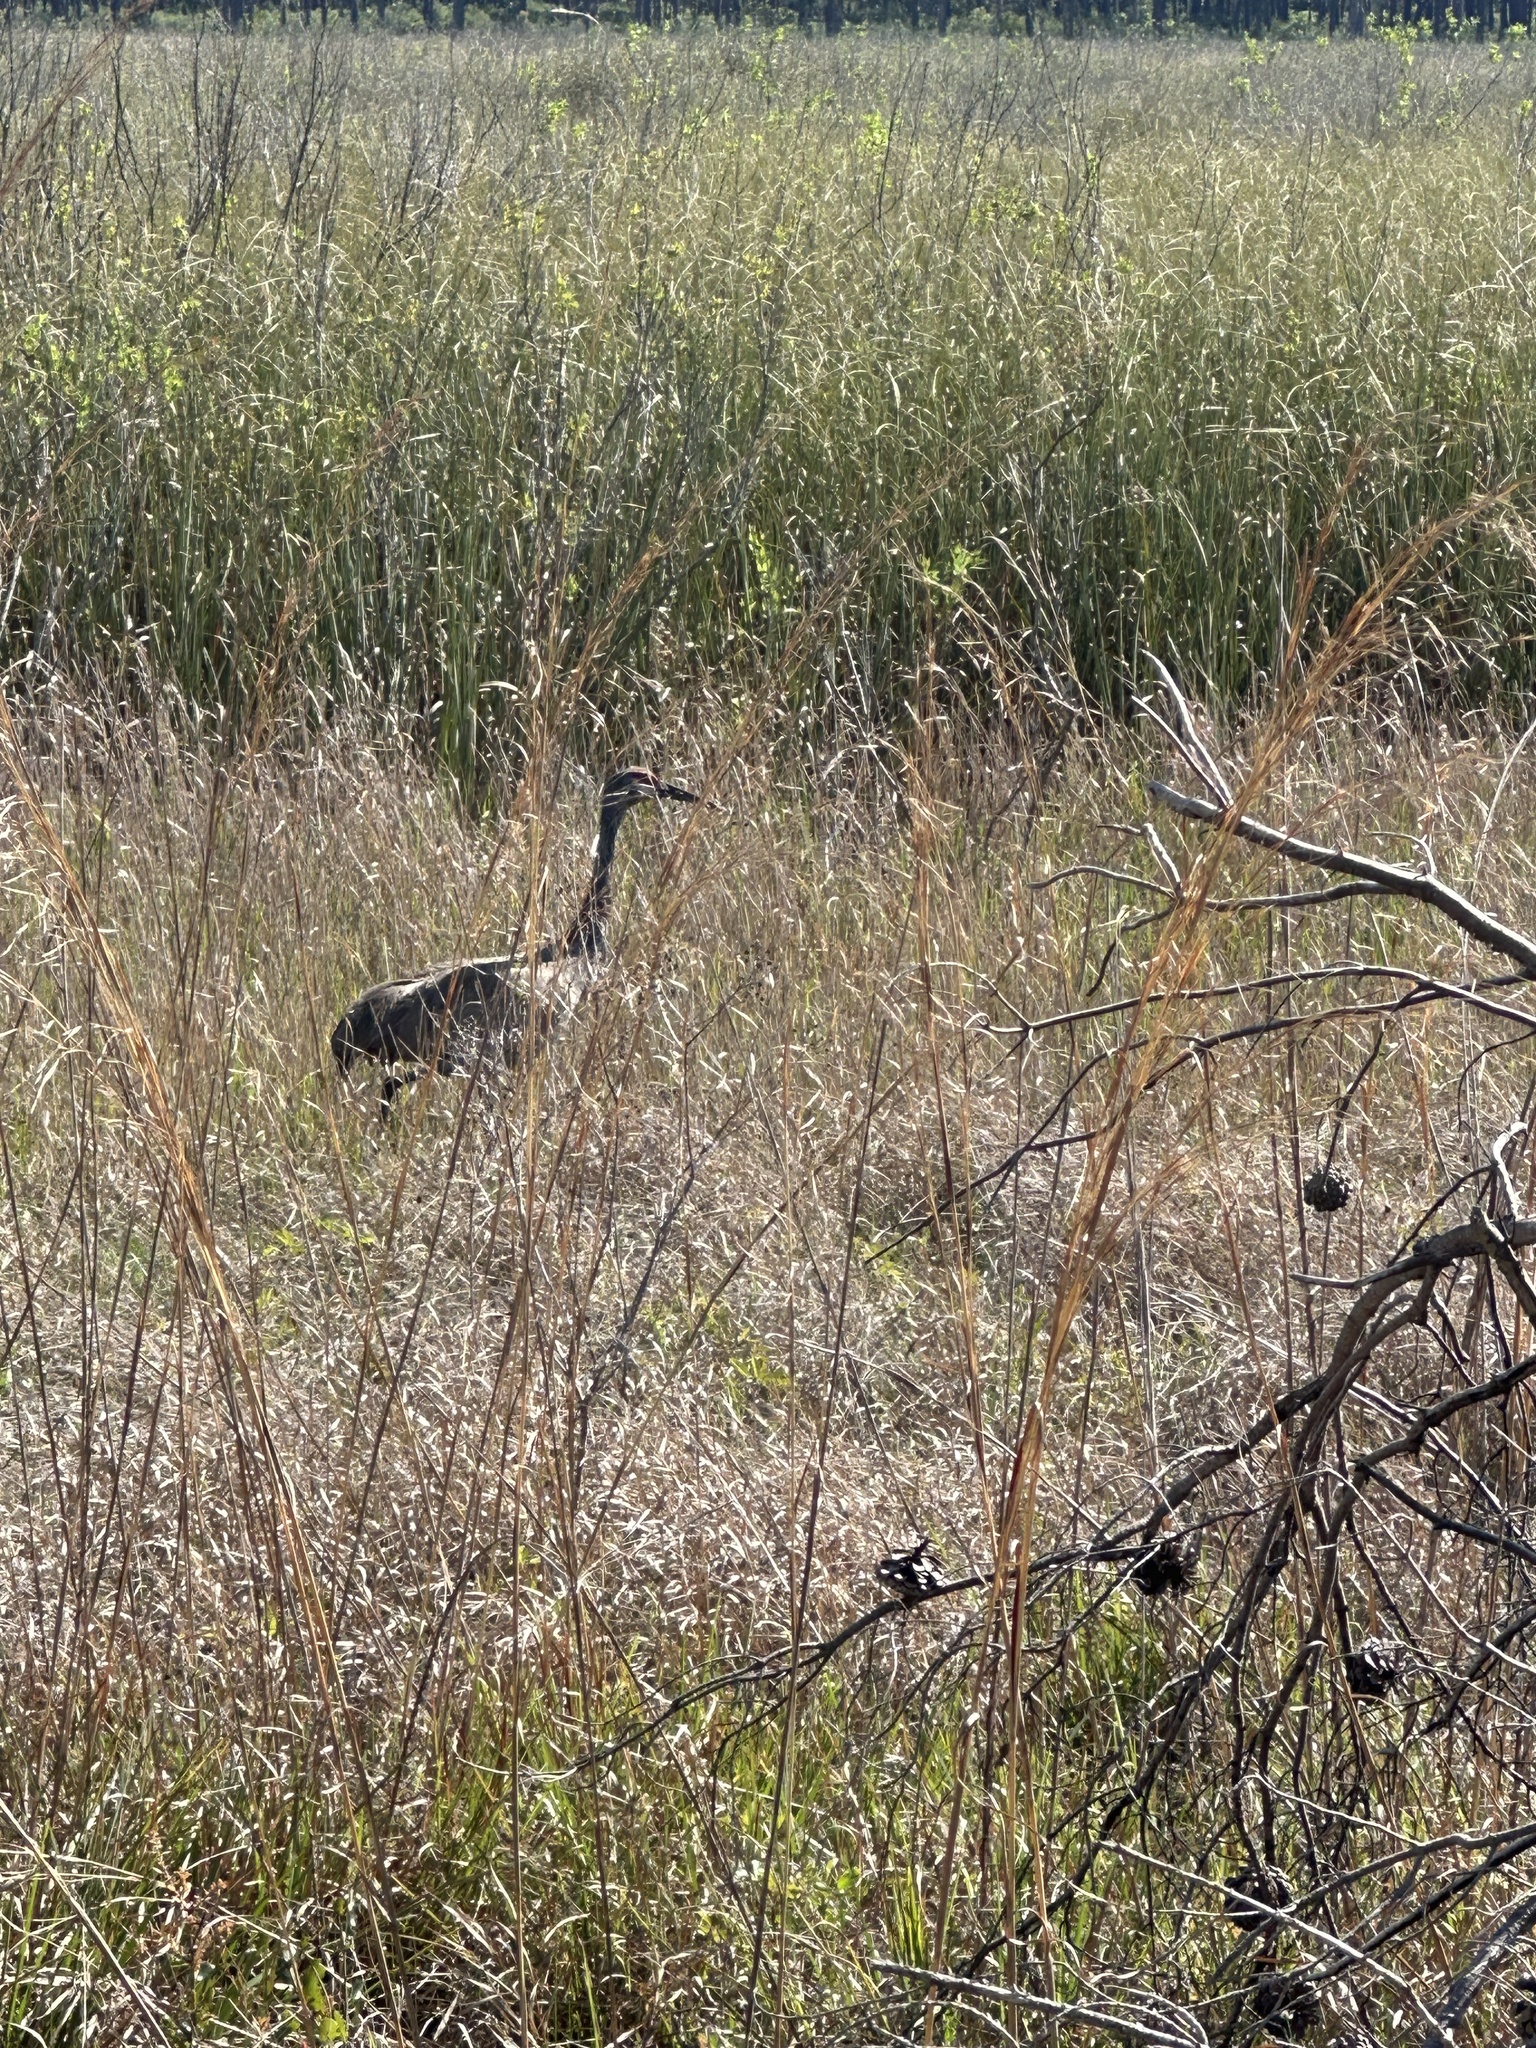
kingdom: Animalia
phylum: Chordata
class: Aves
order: Gruiformes
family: Gruidae
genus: Grus
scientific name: Grus canadensis
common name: Sandhill crane
